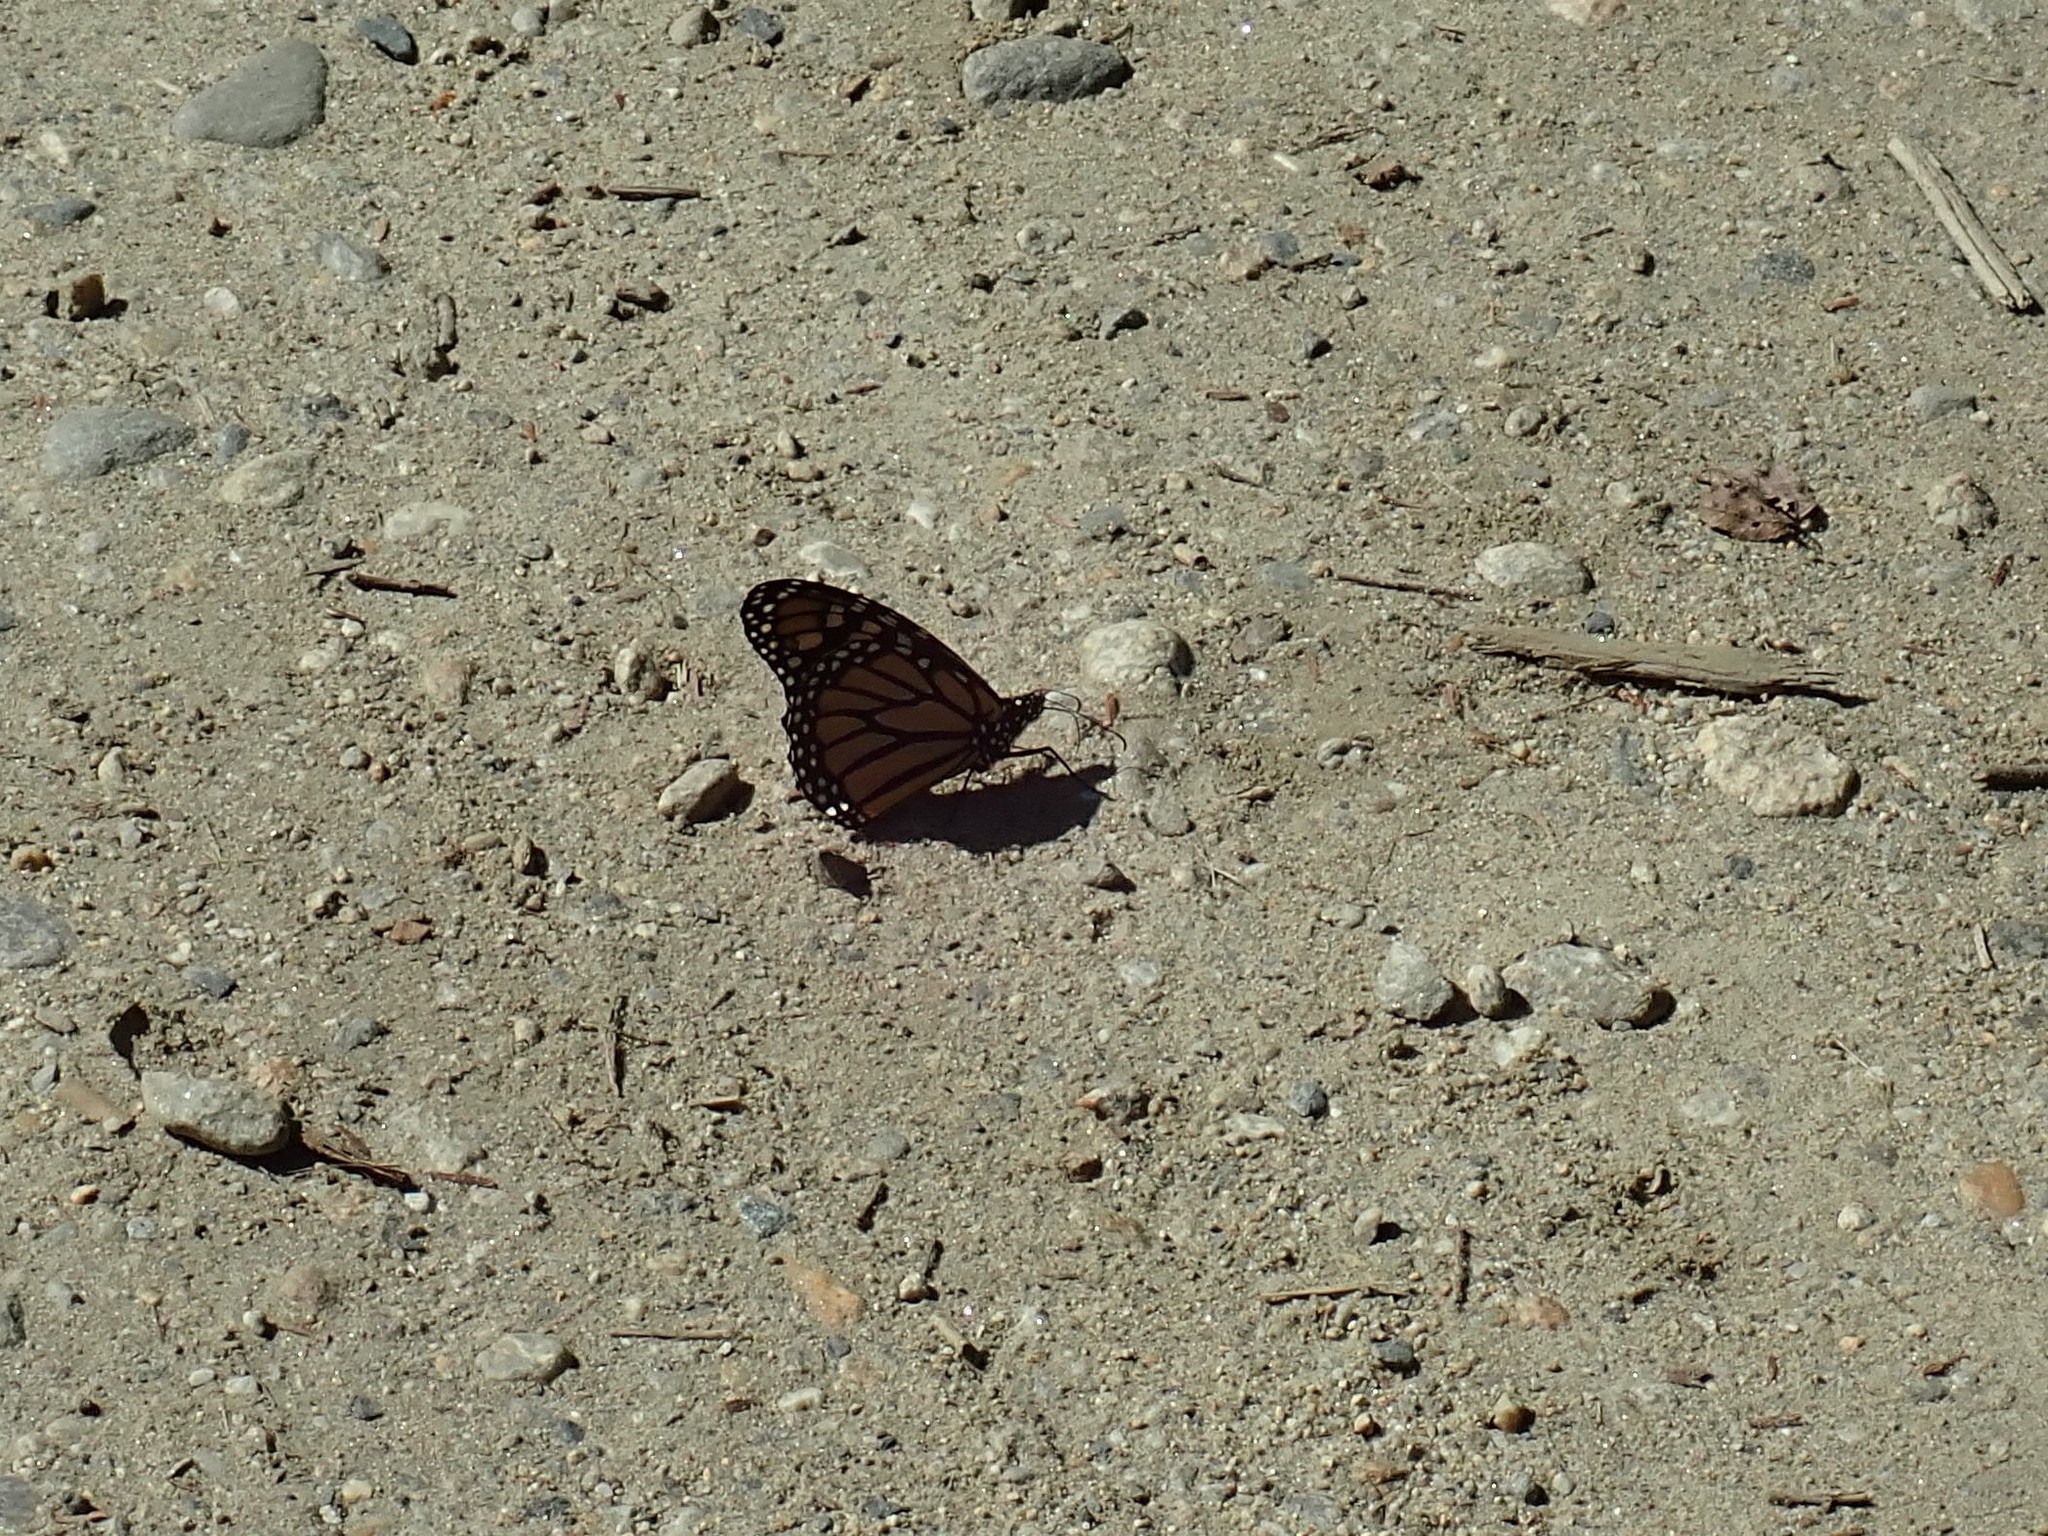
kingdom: Animalia
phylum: Arthropoda
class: Insecta
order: Lepidoptera
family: Nymphalidae
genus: Danaus
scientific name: Danaus plexippus
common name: Monarch
